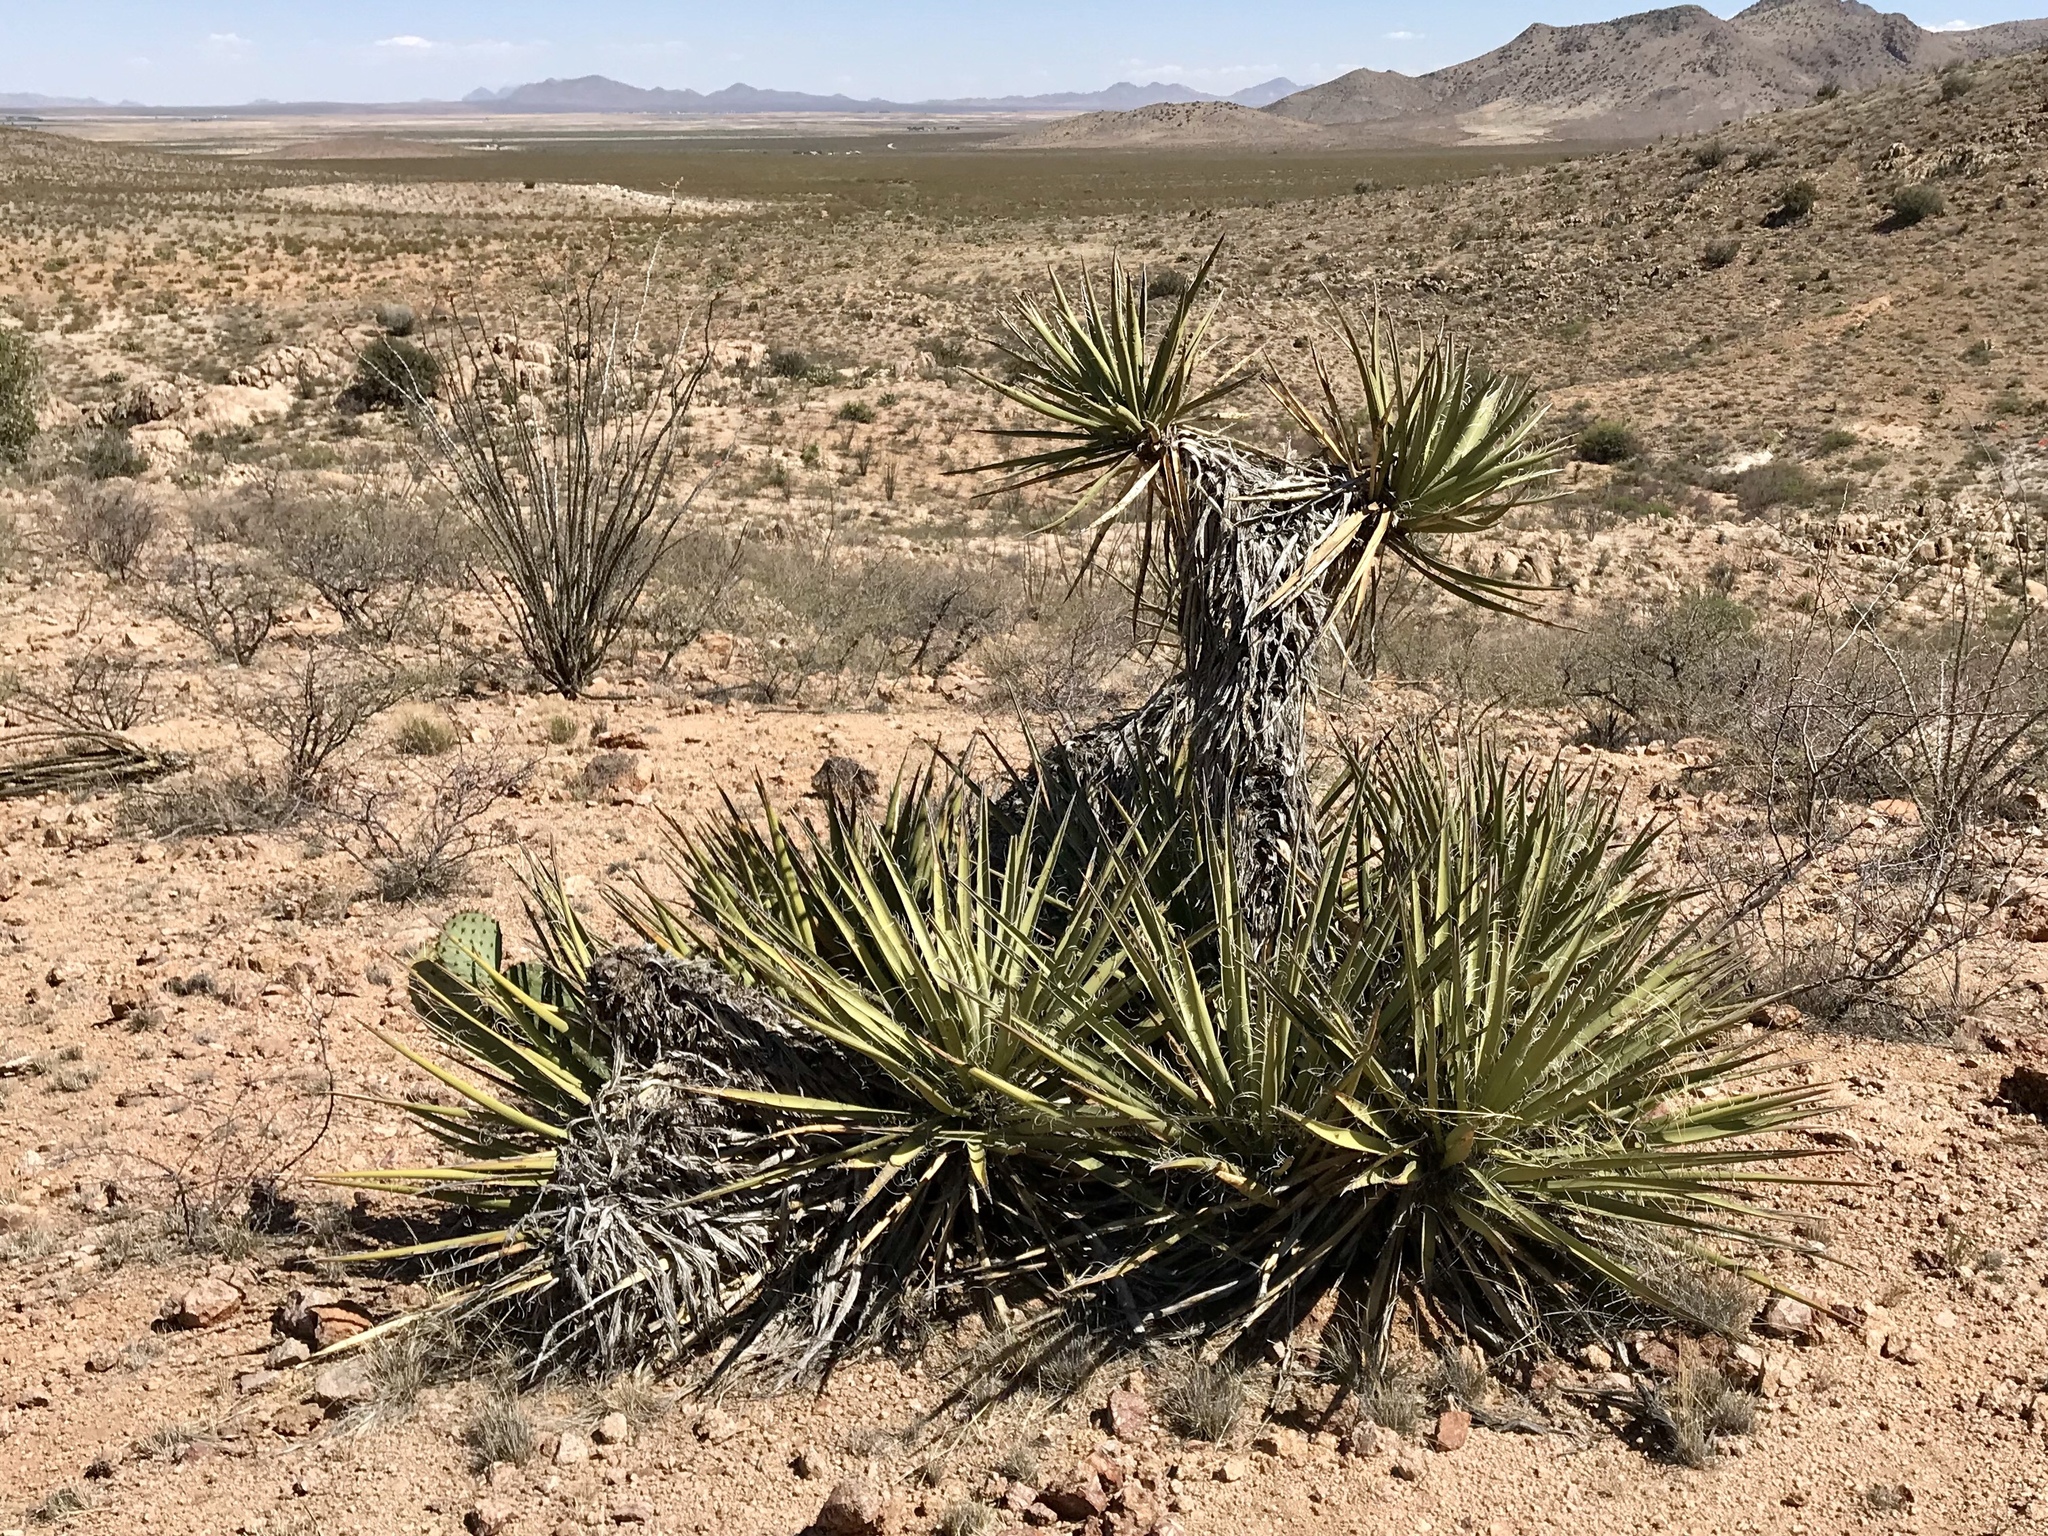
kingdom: Plantae
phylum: Tracheophyta
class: Liliopsida
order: Asparagales
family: Asparagaceae
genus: Yucca
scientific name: Yucca baccata
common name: Banana yucca
